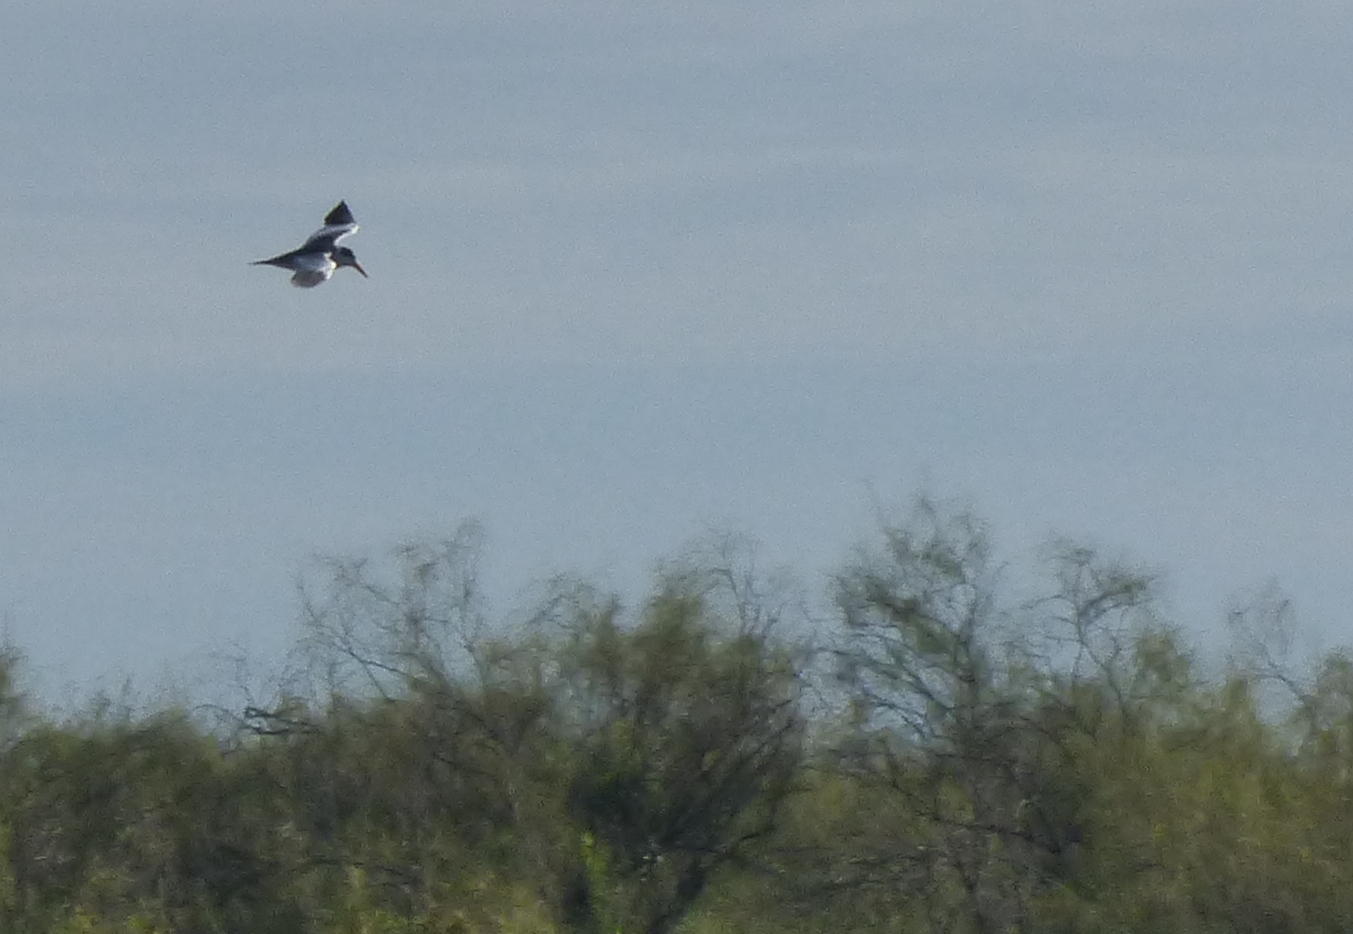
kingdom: Animalia
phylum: Chordata
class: Aves
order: Charadriiformes
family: Laridae
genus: Phaetusa
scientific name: Phaetusa simplex
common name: Large-billed tern
